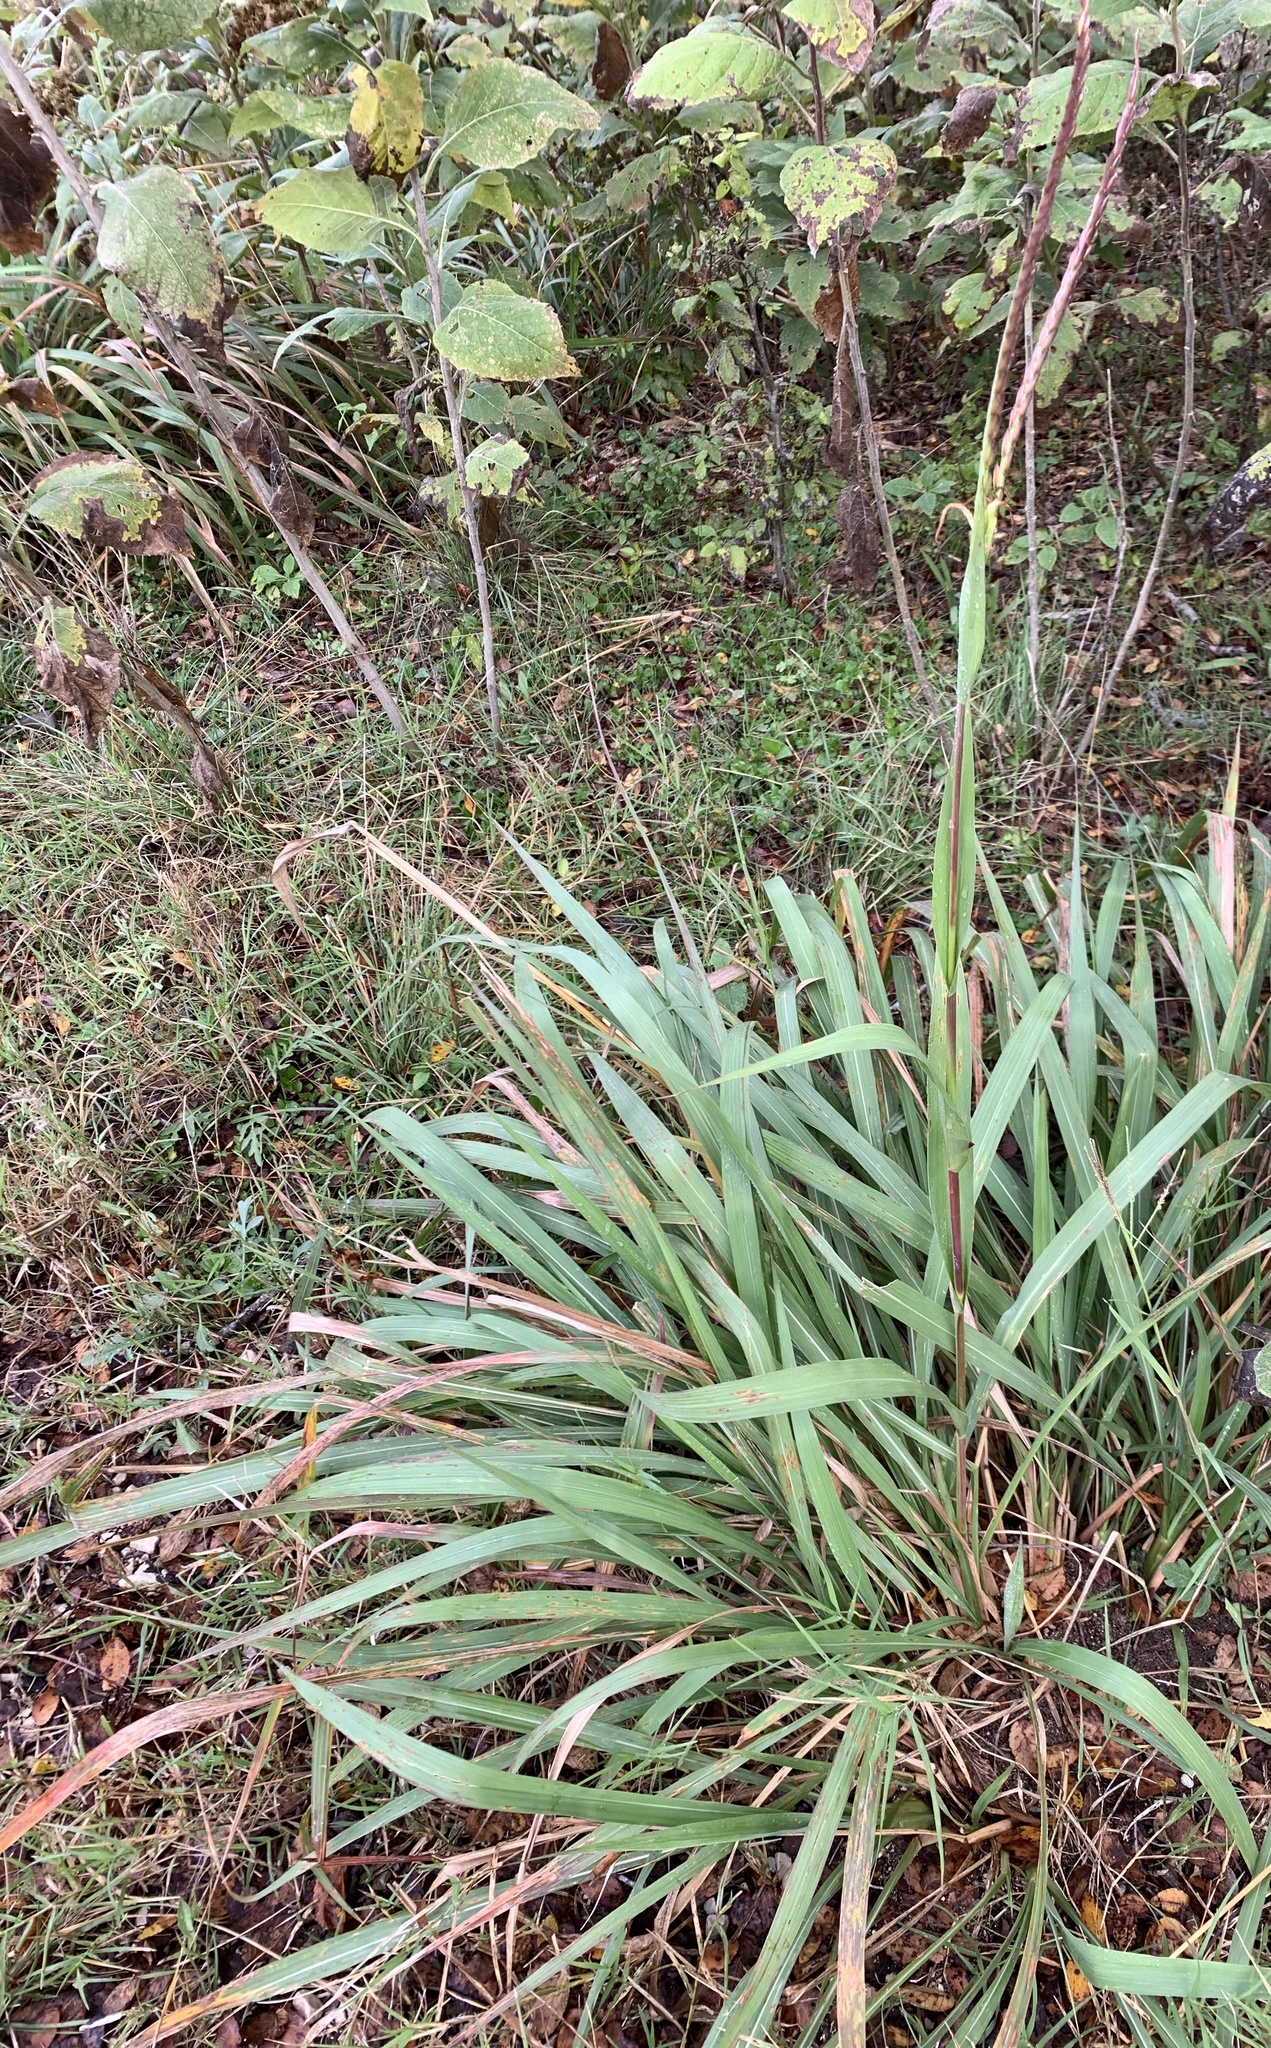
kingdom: Plantae
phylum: Tracheophyta
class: Liliopsida
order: Poales
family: Poaceae
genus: Tripsacum
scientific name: Tripsacum dactyloides
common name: Buffalo-grass
